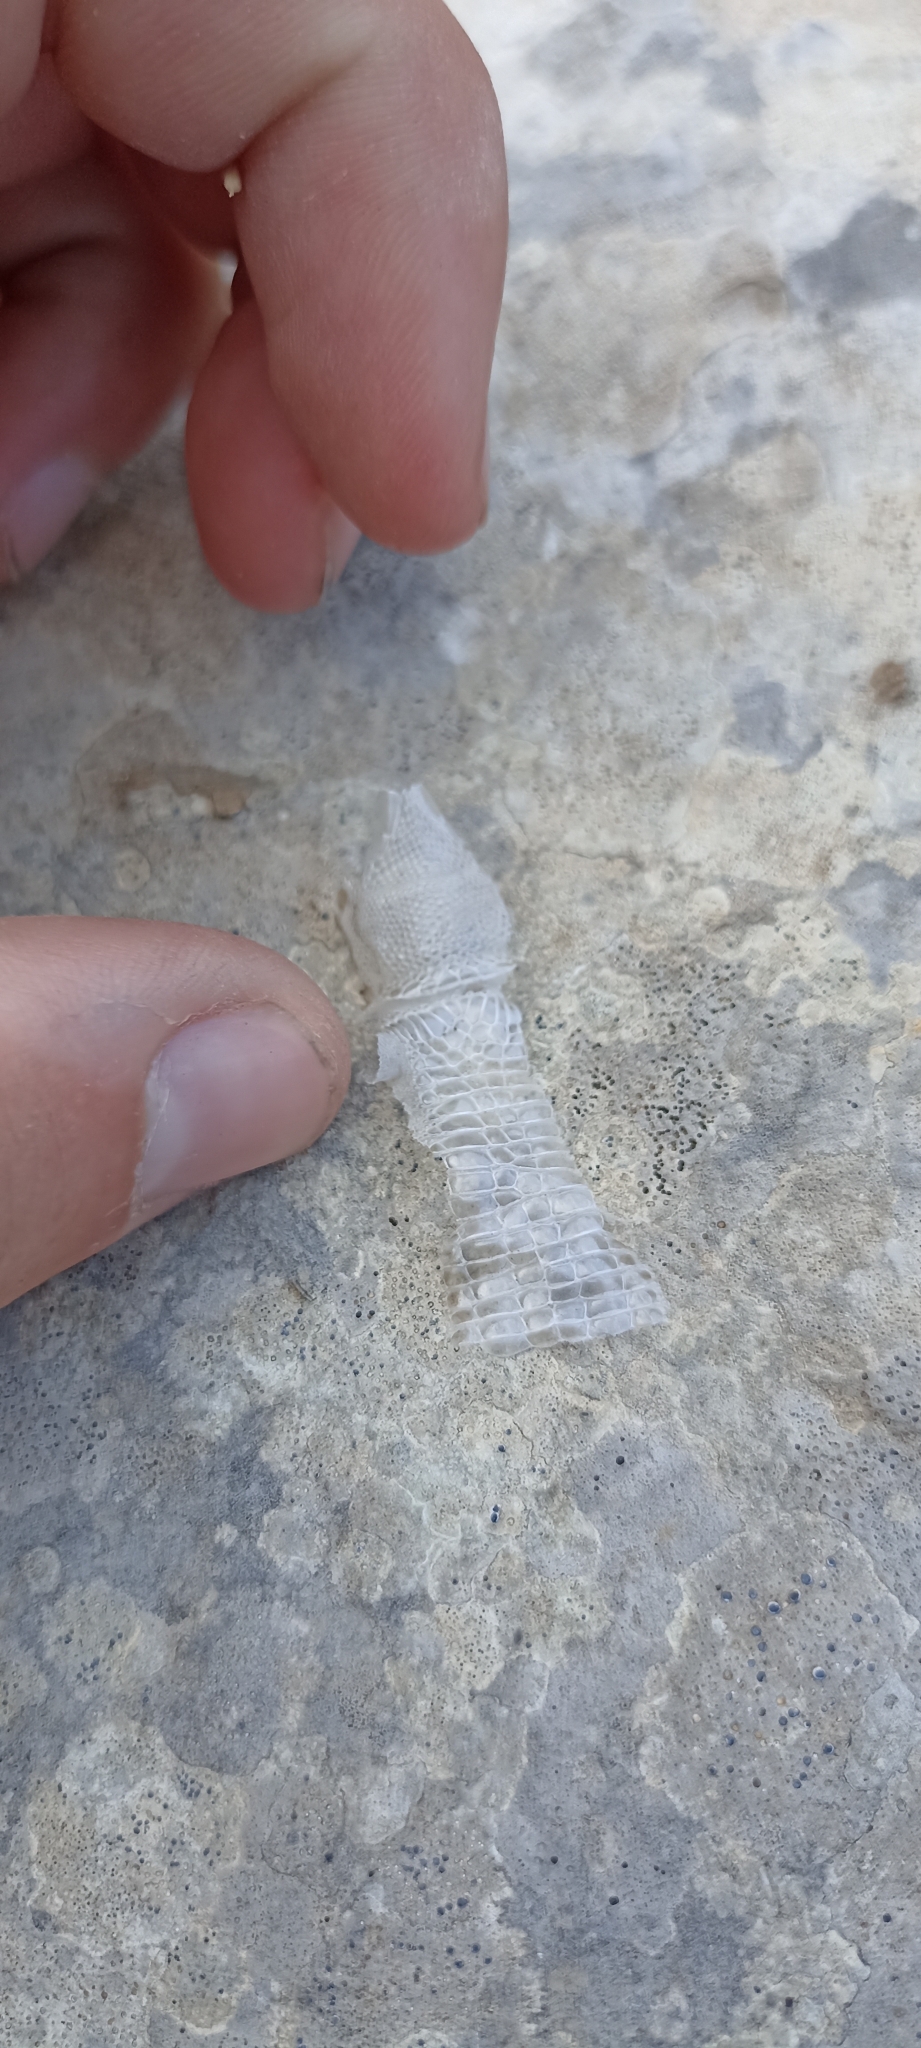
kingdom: Animalia
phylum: Chordata
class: Squamata
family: Lacertidae
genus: Podarcis
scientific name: Podarcis muralis
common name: Common wall lizard
